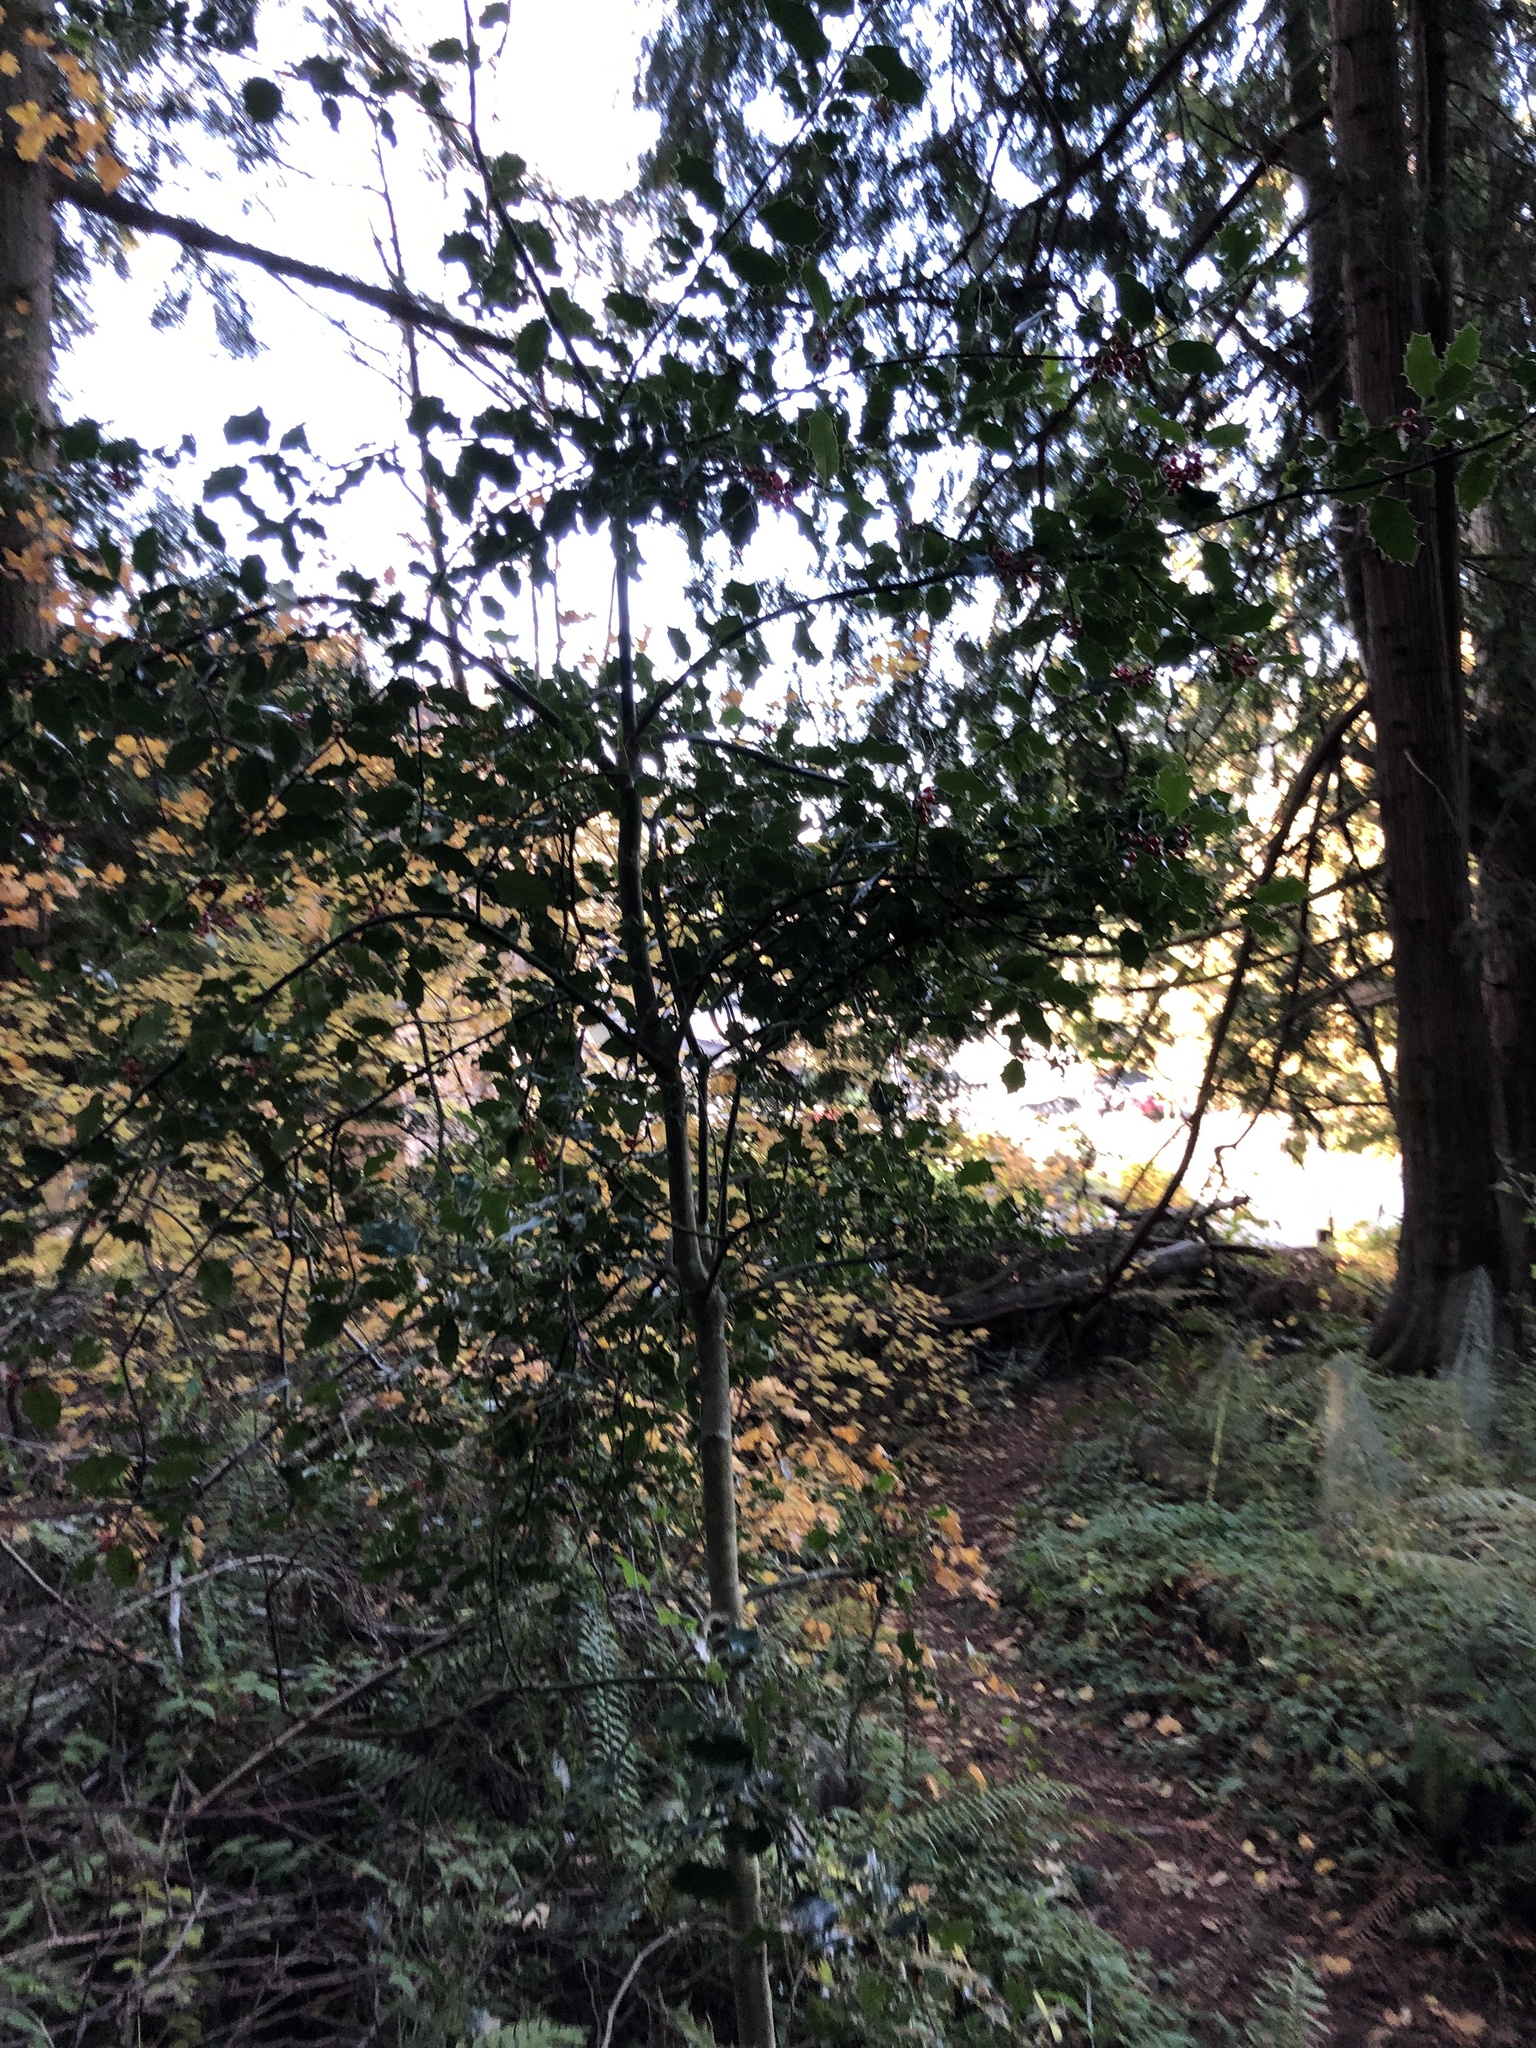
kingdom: Plantae
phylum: Tracheophyta
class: Magnoliopsida
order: Aquifoliales
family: Aquifoliaceae
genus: Ilex
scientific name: Ilex aquifolium
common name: English holly
